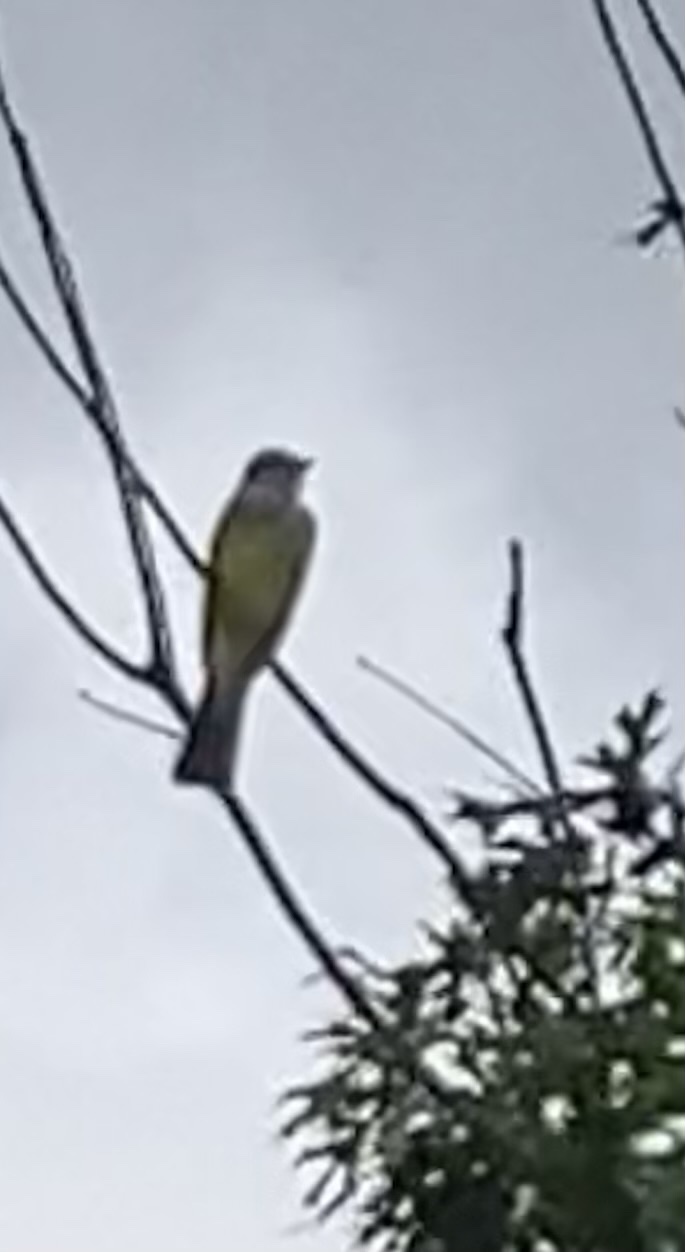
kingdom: Animalia
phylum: Chordata
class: Aves
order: Passeriformes
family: Tyrannidae
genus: Tyrannus
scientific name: Tyrannus verticalis
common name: Western kingbird
